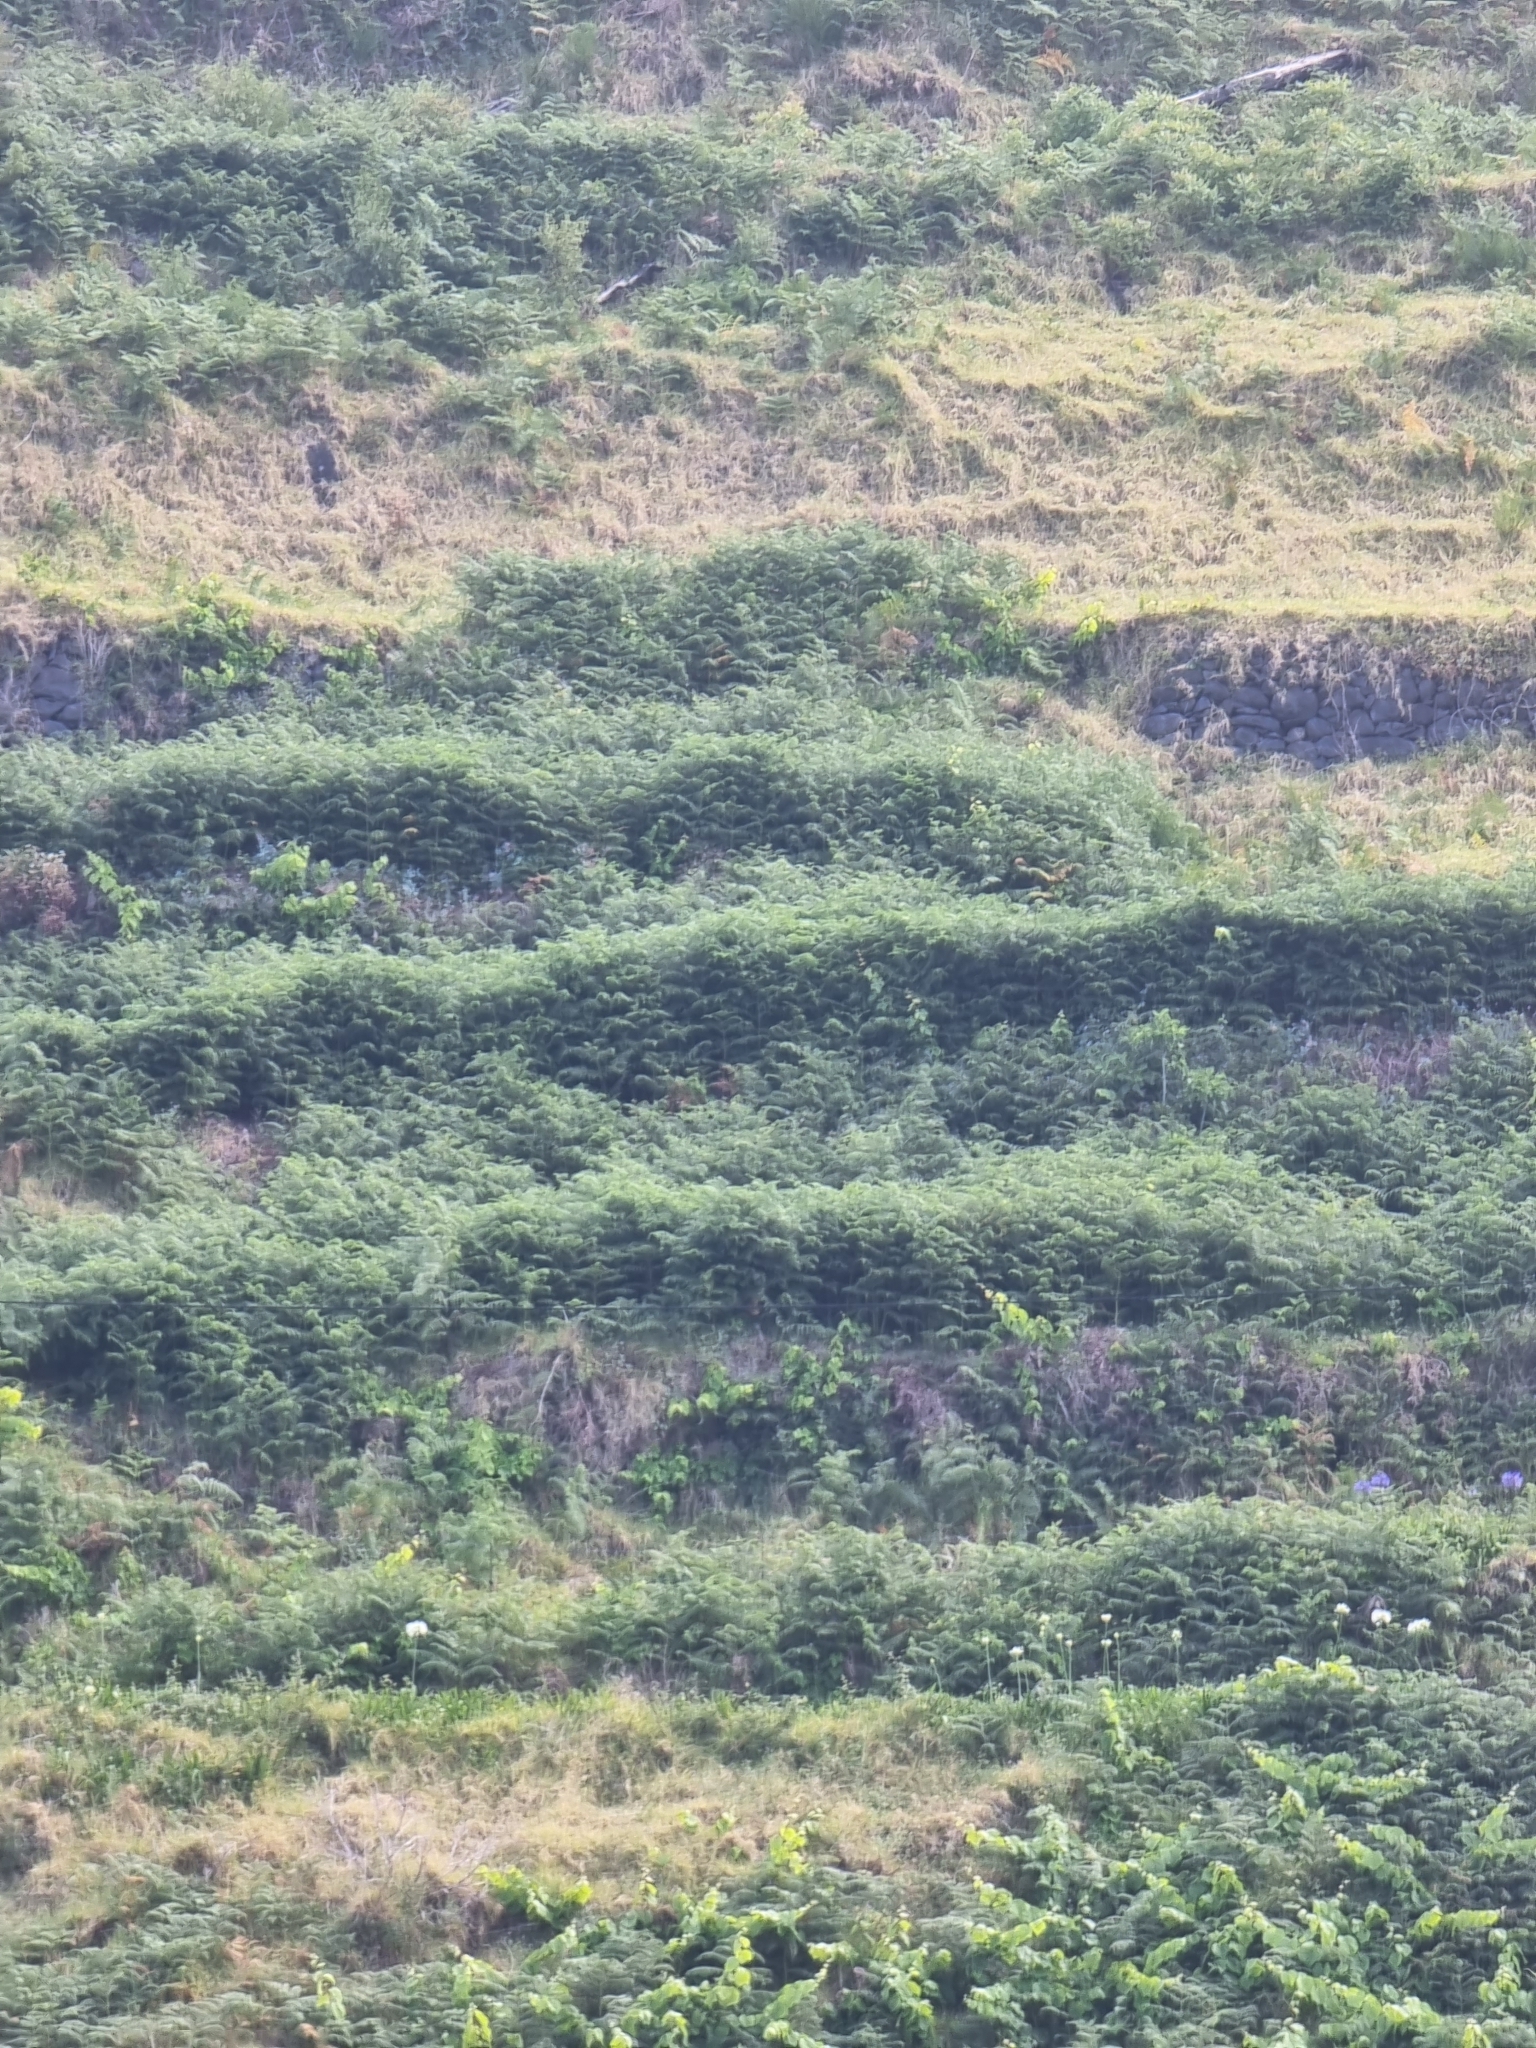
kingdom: Plantae
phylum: Tracheophyta
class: Polypodiopsida
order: Polypodiales
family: Dennstaedtiaceae
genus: Pteridium
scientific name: Pteridium aquilinum
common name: Bracken
